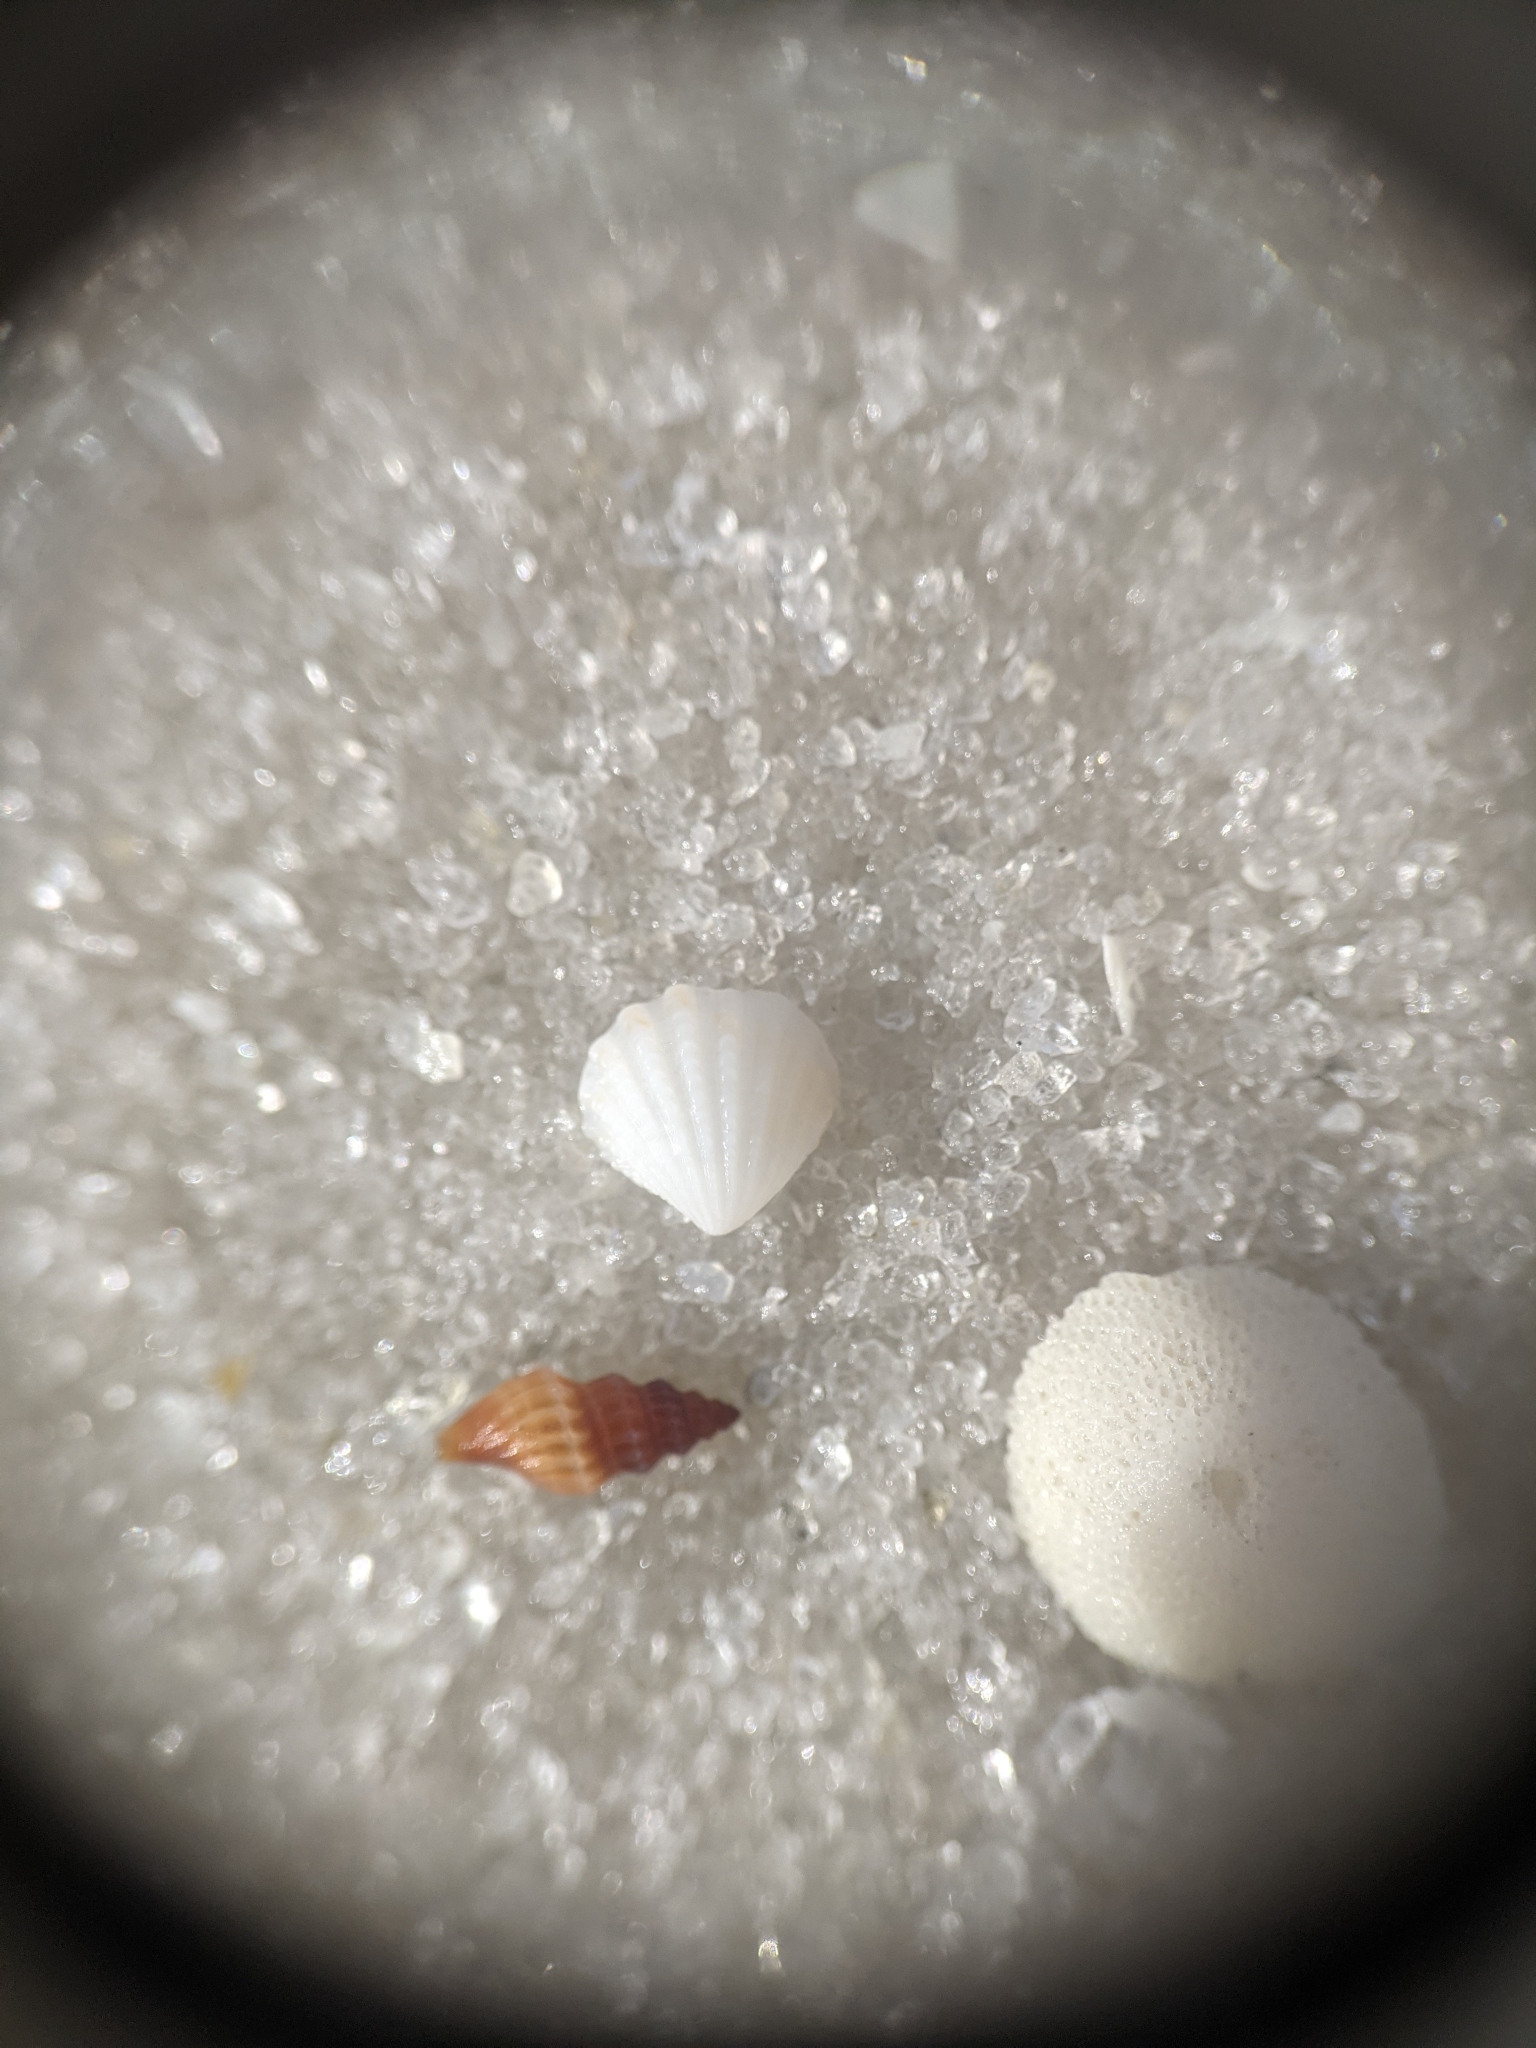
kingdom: Animalia
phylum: Mollusca
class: Bivalvia
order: Carditida
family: Carditidae
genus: Pleuromeris
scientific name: Pleuromeris tridentata
